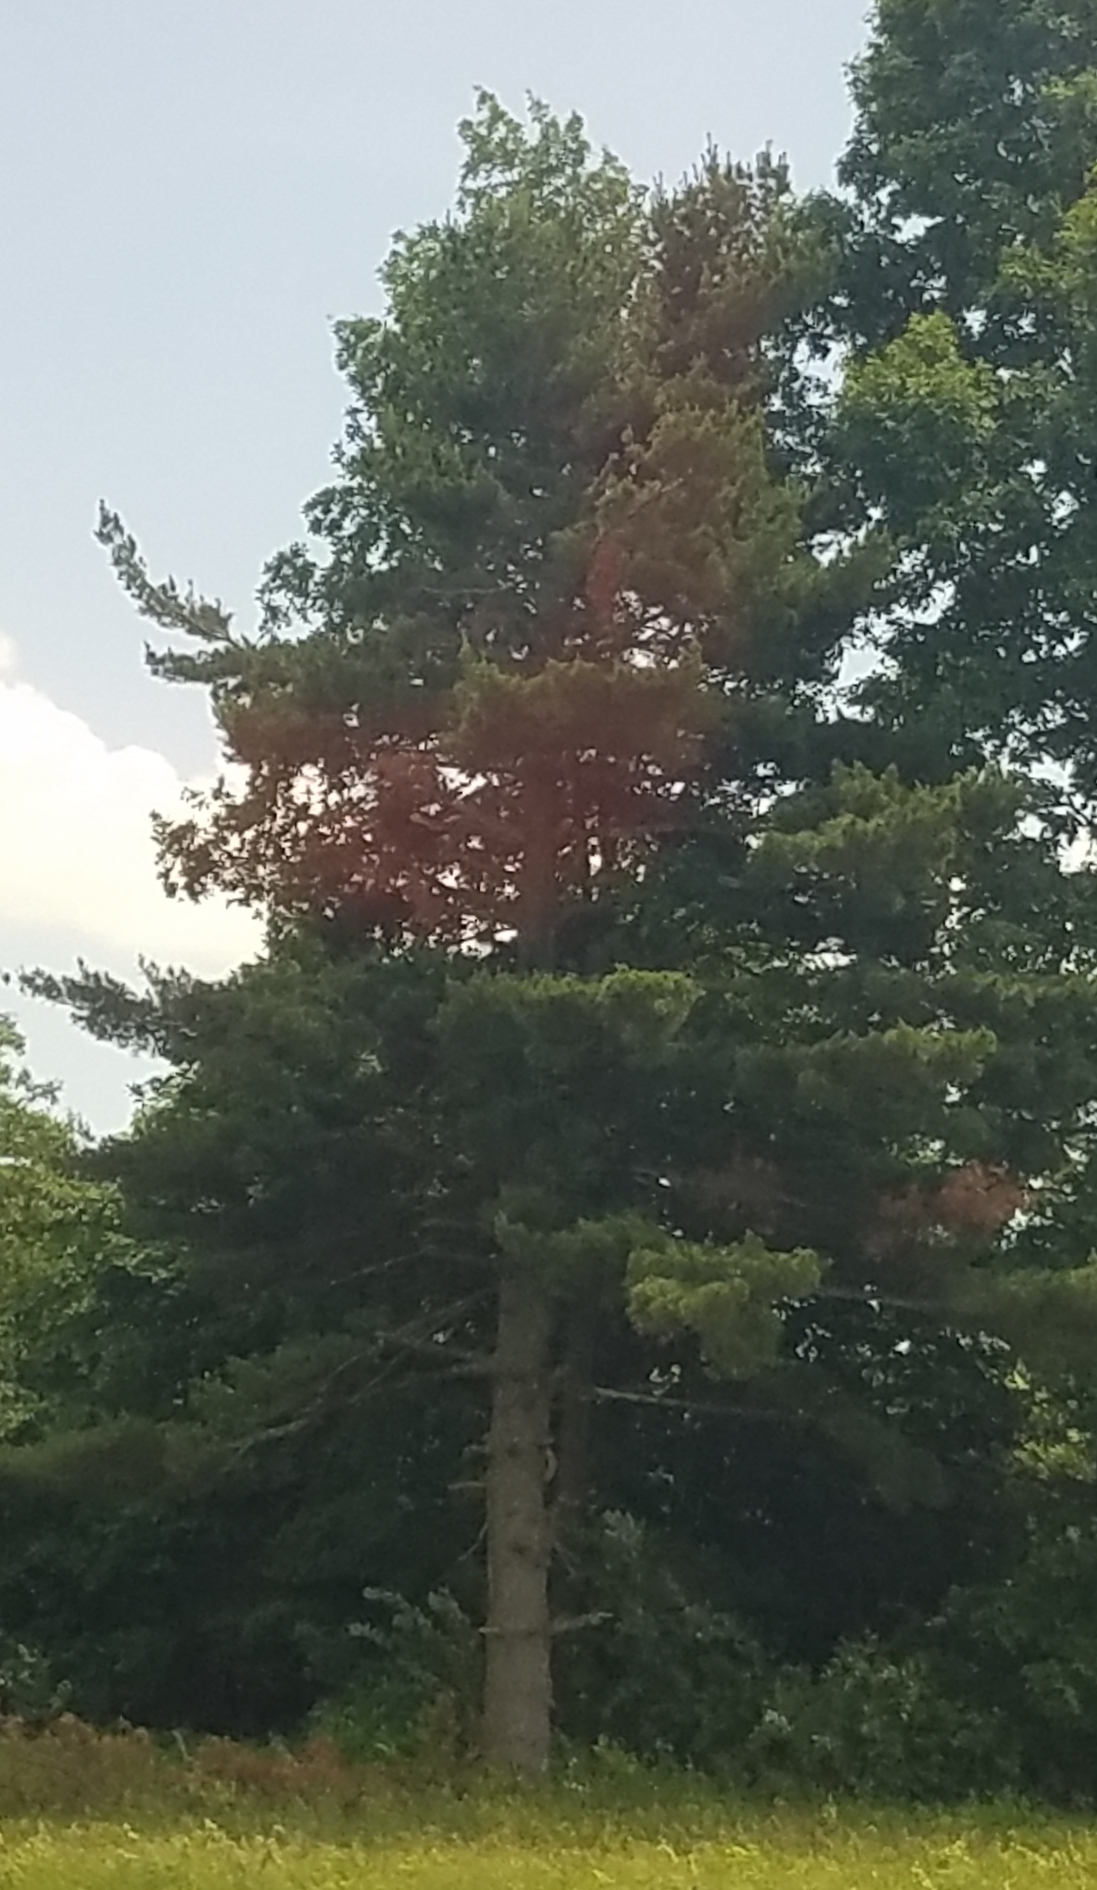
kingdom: Plantae
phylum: Tracheophyta
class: Pinopsida
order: Pinales
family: Pinaceae
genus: Pinus
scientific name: Pinus strobus
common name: Weymouth pine
